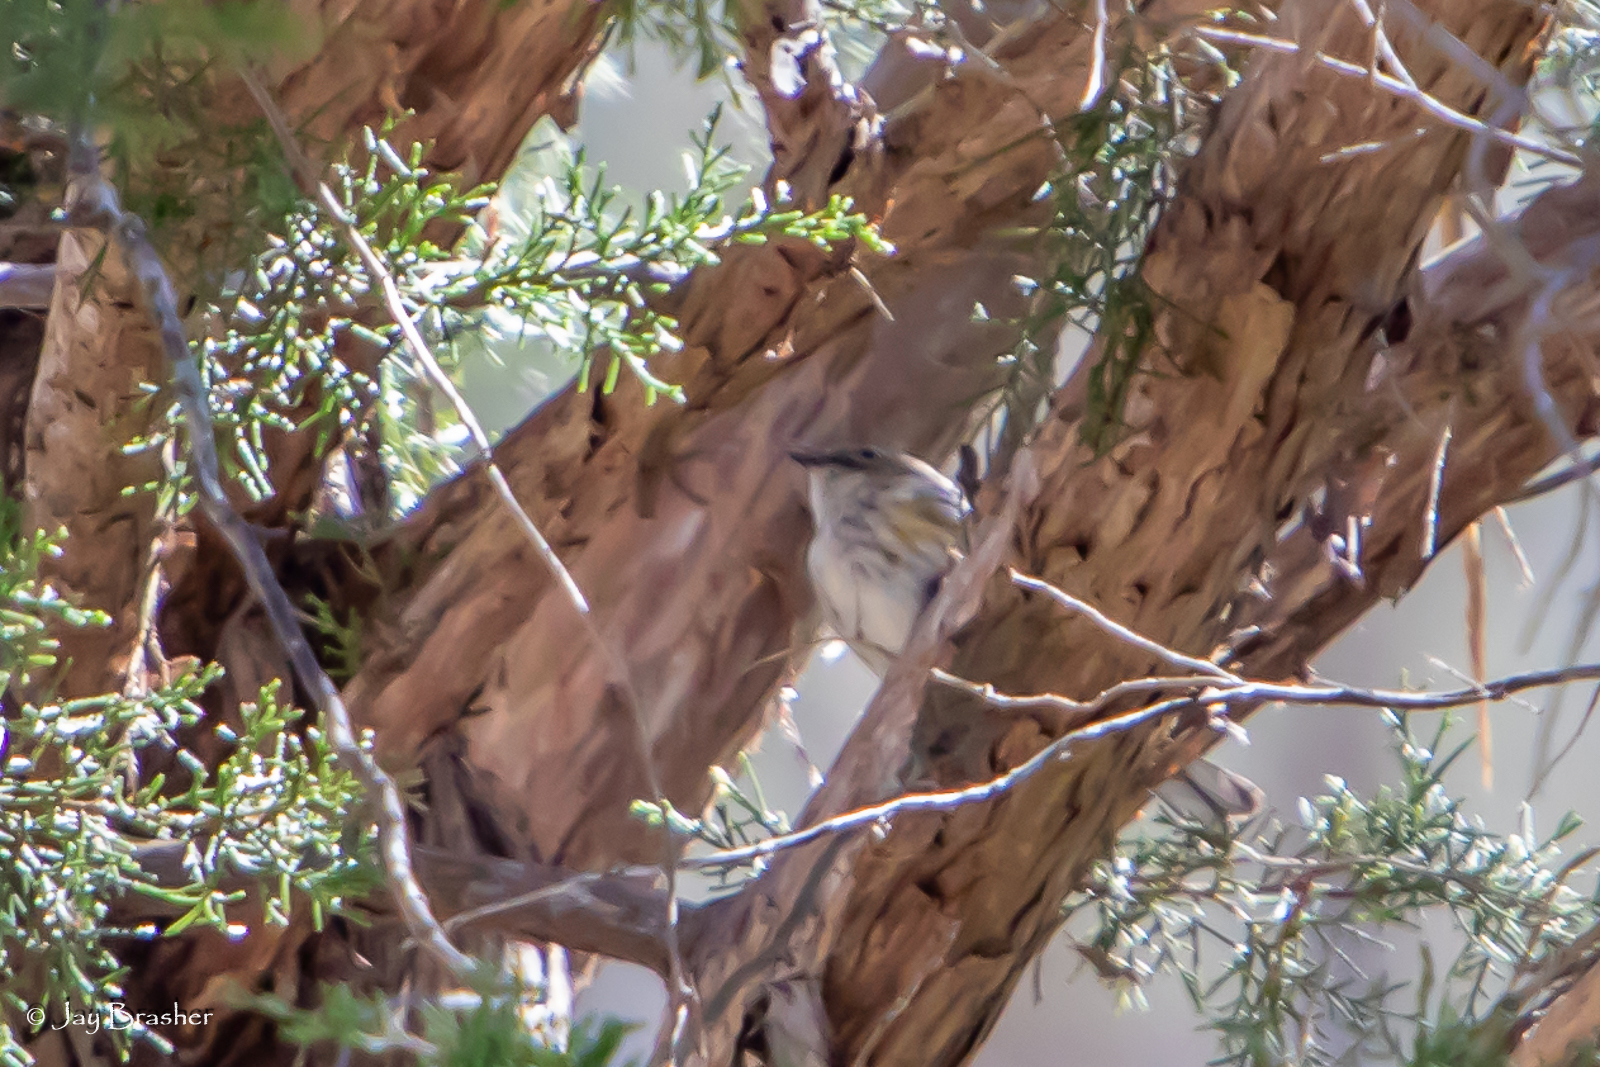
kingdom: Animalia
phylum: Chordata
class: Aves
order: Passeriformes
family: Parulidae
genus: Setophaga
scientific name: Setophaga coronata
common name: Myrtle warbler
